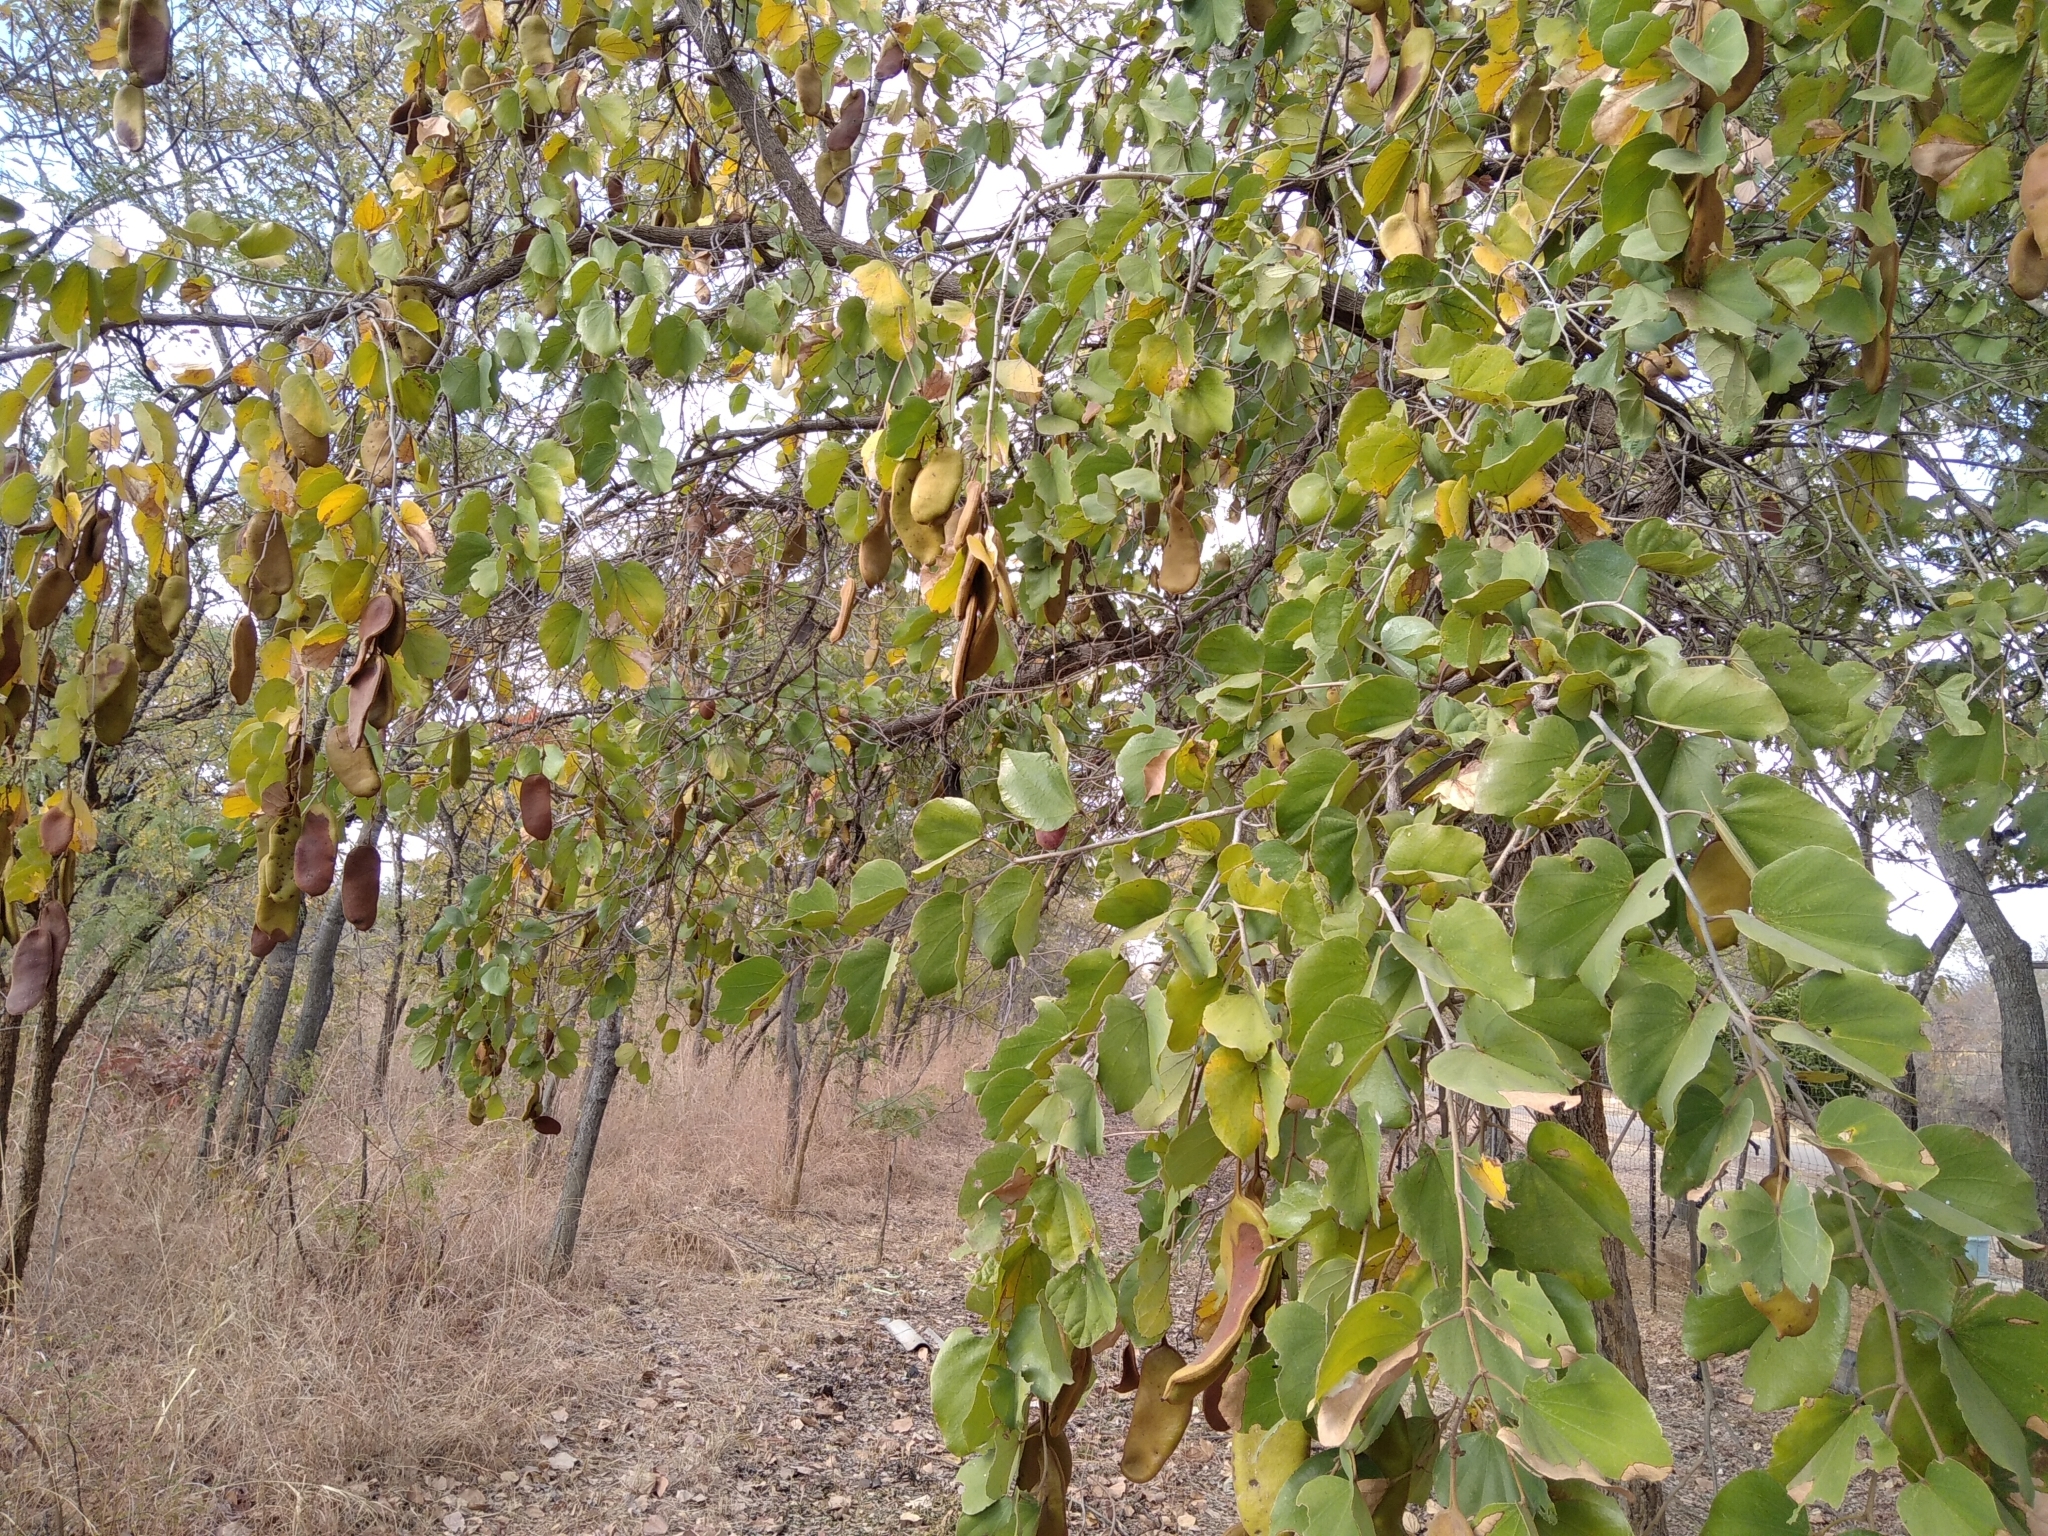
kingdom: Plantae
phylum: Tracheophyta
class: Magnoliopsida
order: Fabales
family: Fabaceae
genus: Piliostigma
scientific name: Piliostigma thonningii
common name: Kao
